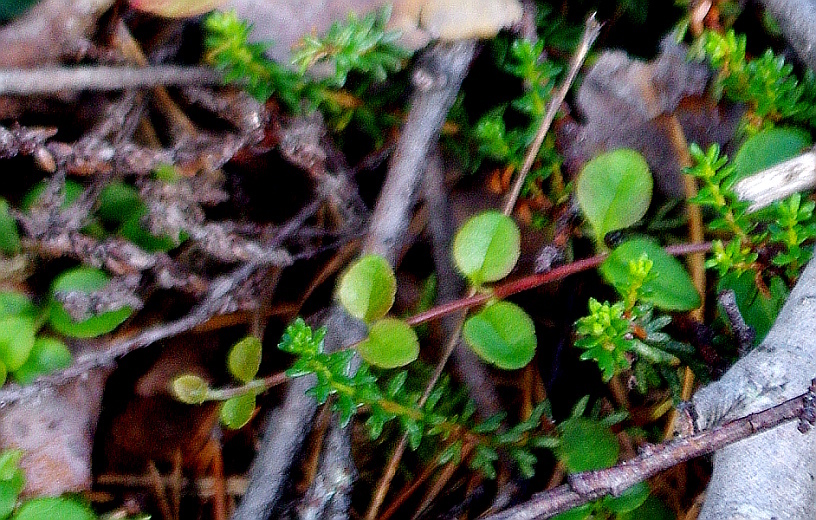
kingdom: Plantae
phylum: Tracheophyta
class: Magnoliopsida
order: Dipsacales
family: Caprifoliaceae
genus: Linnaea
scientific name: Linnaea borealis
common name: Twinflower
